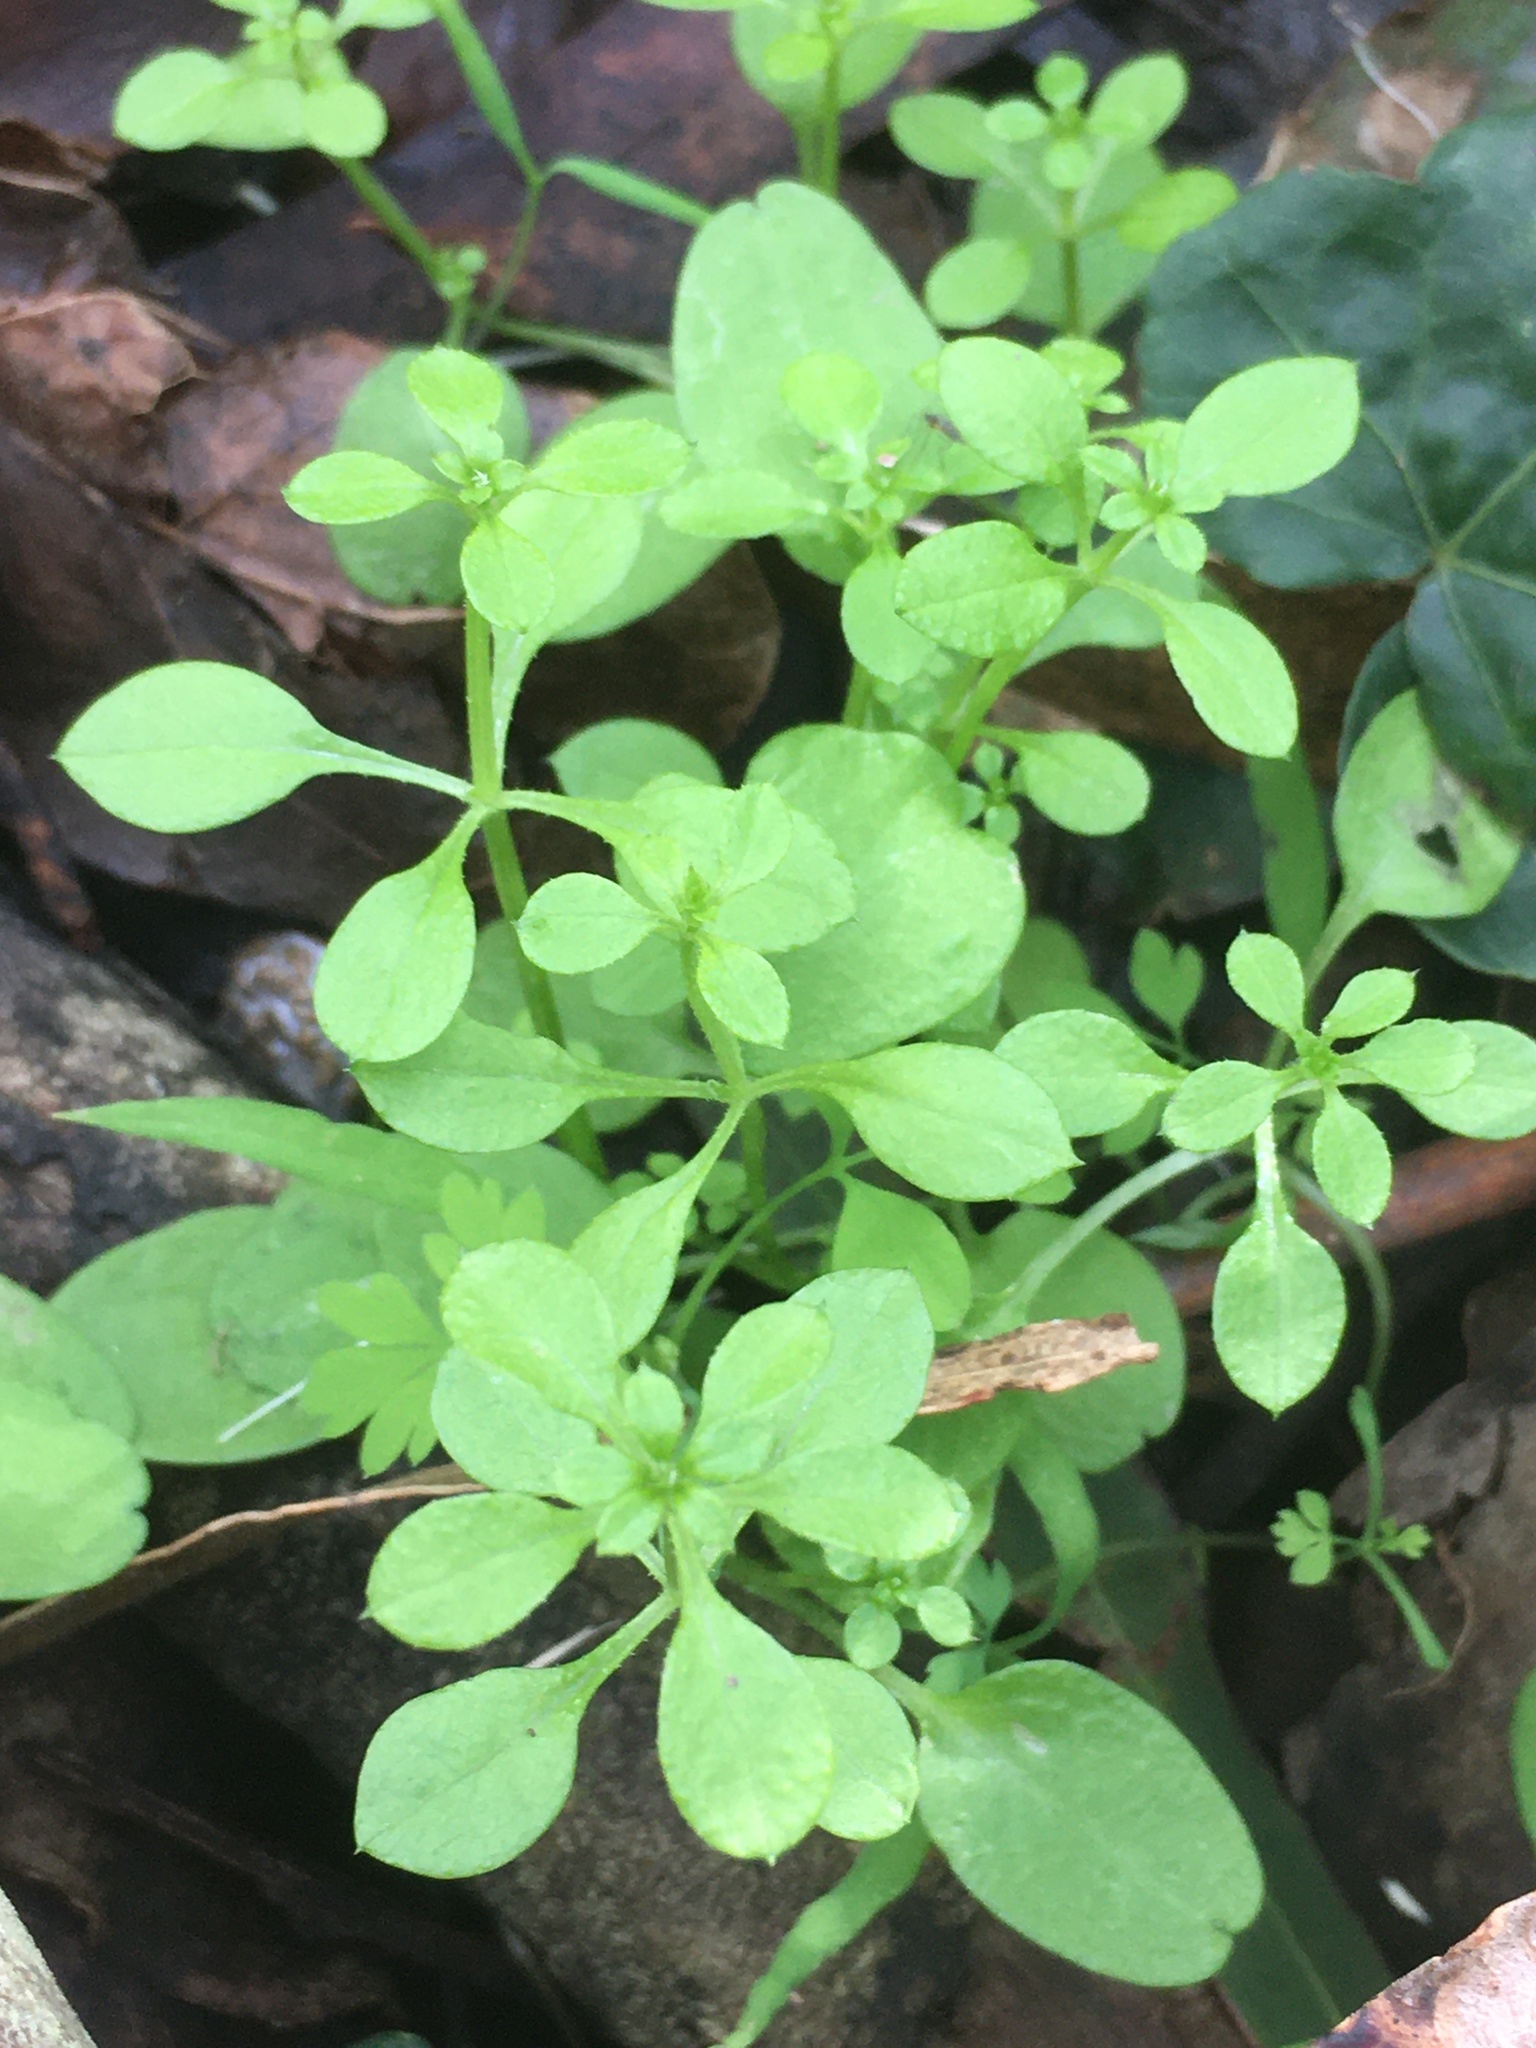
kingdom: Plantae
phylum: Tracheophyta
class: Magnoliopsida
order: Gentianales
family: Rubiaceae
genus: Galium
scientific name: Galium aparine
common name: Cleavers
